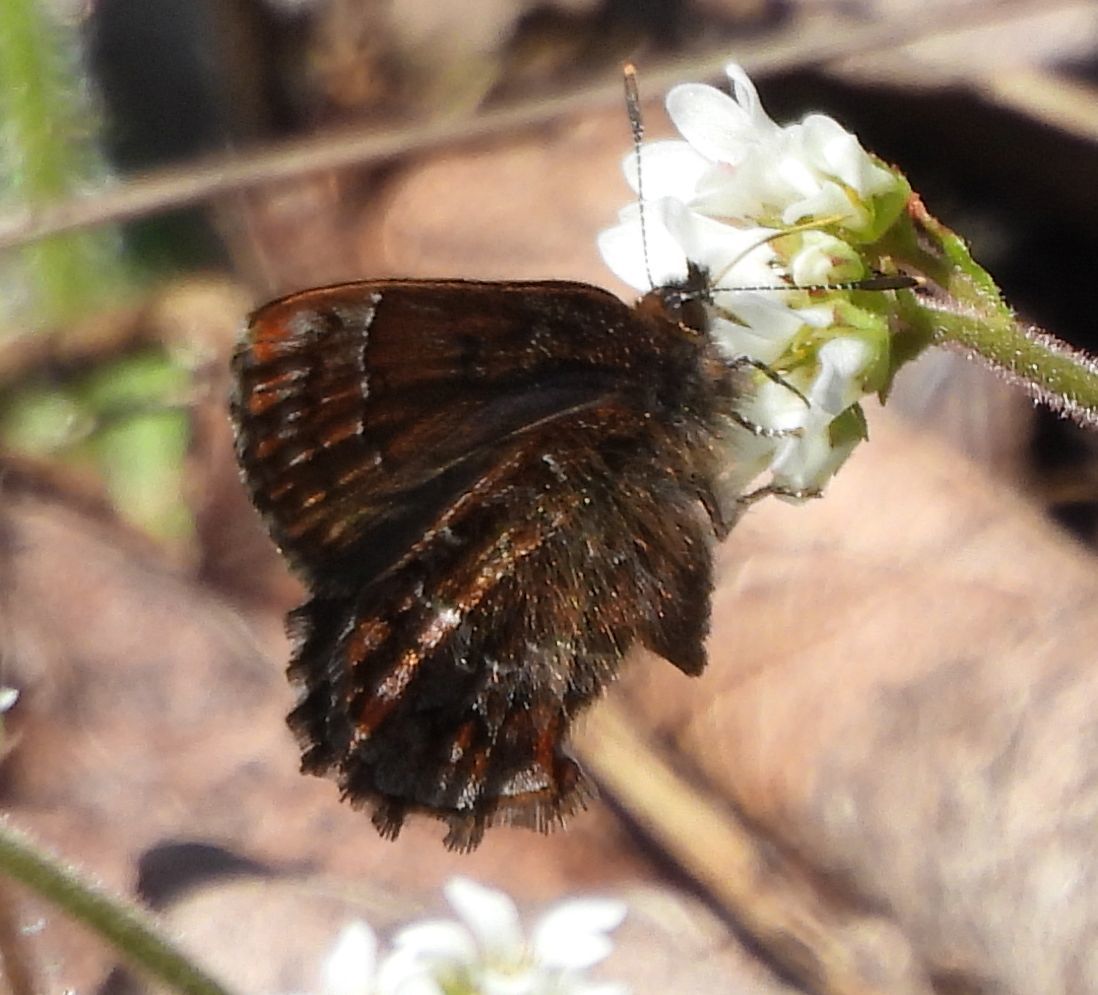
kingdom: Animalia
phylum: Arthropoda
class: Insecta
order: Lepidoptera
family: Lycaenidae
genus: Incisalia
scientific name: Incisalia niphon
